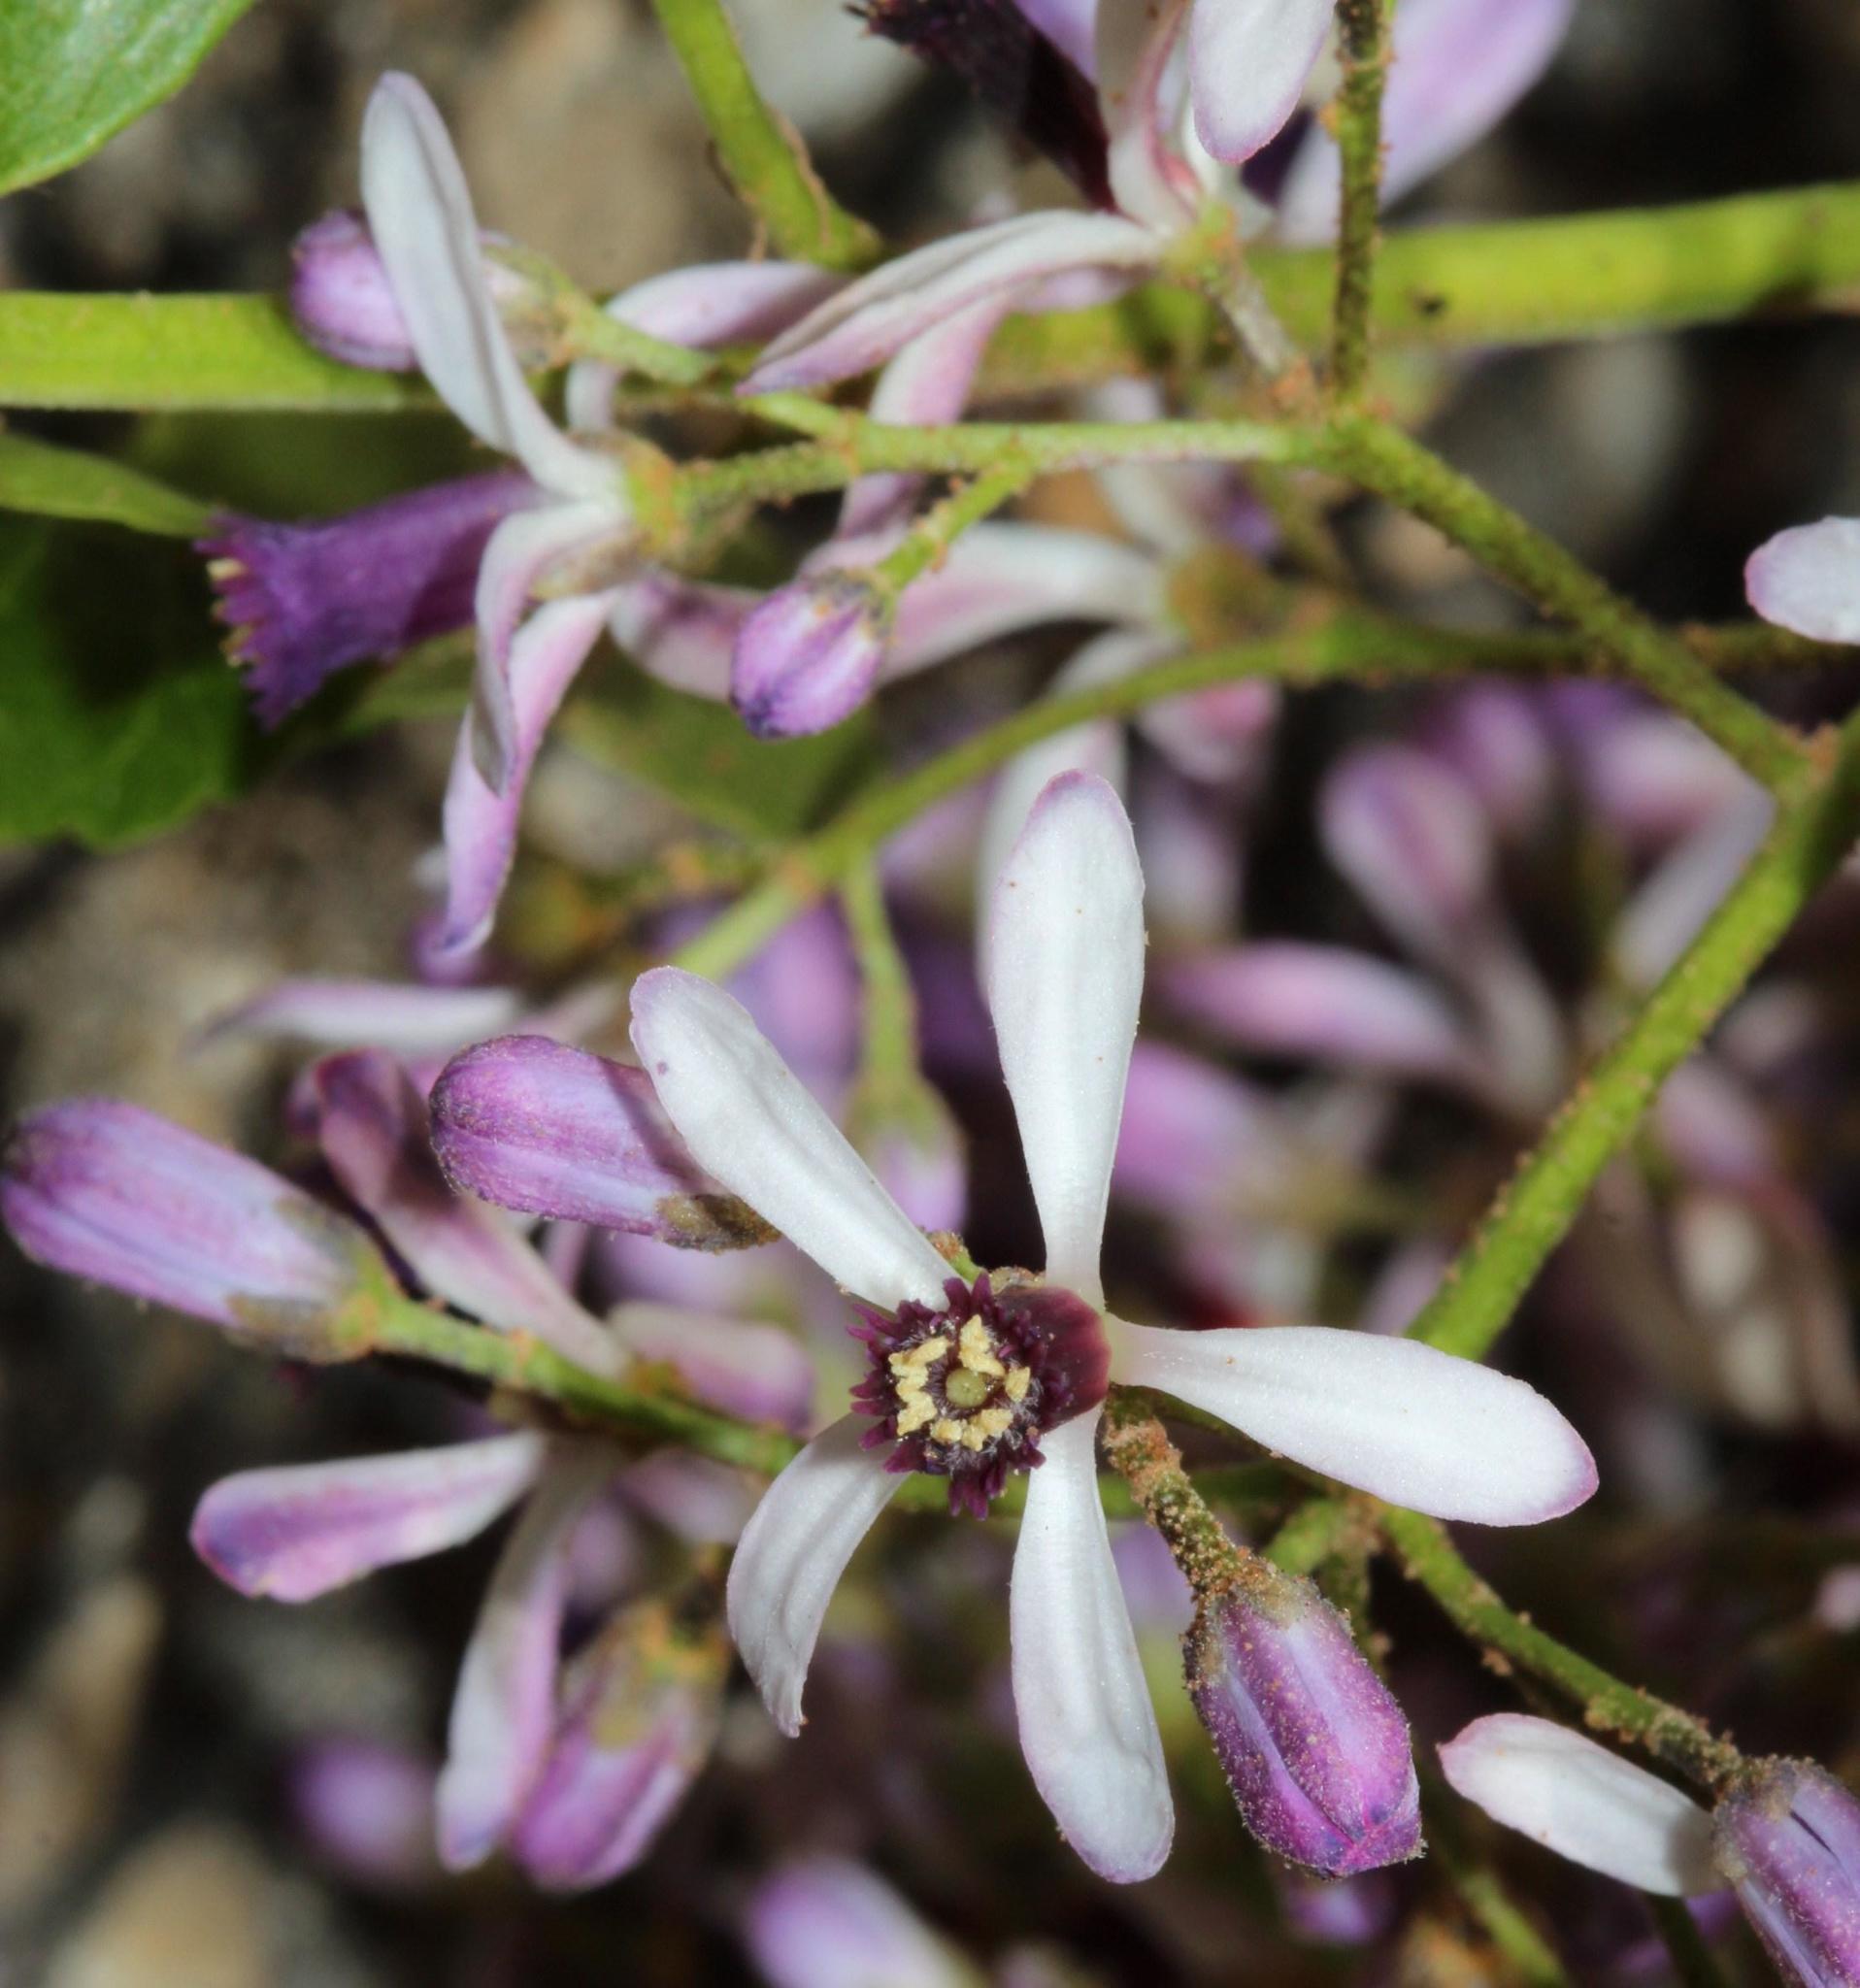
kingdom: Plantae
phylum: Tracheophyta
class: Magnoliopsida
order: Sapindales
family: Meliaceae
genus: Melia
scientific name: Melia azedarach
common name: Chinaberrytree
